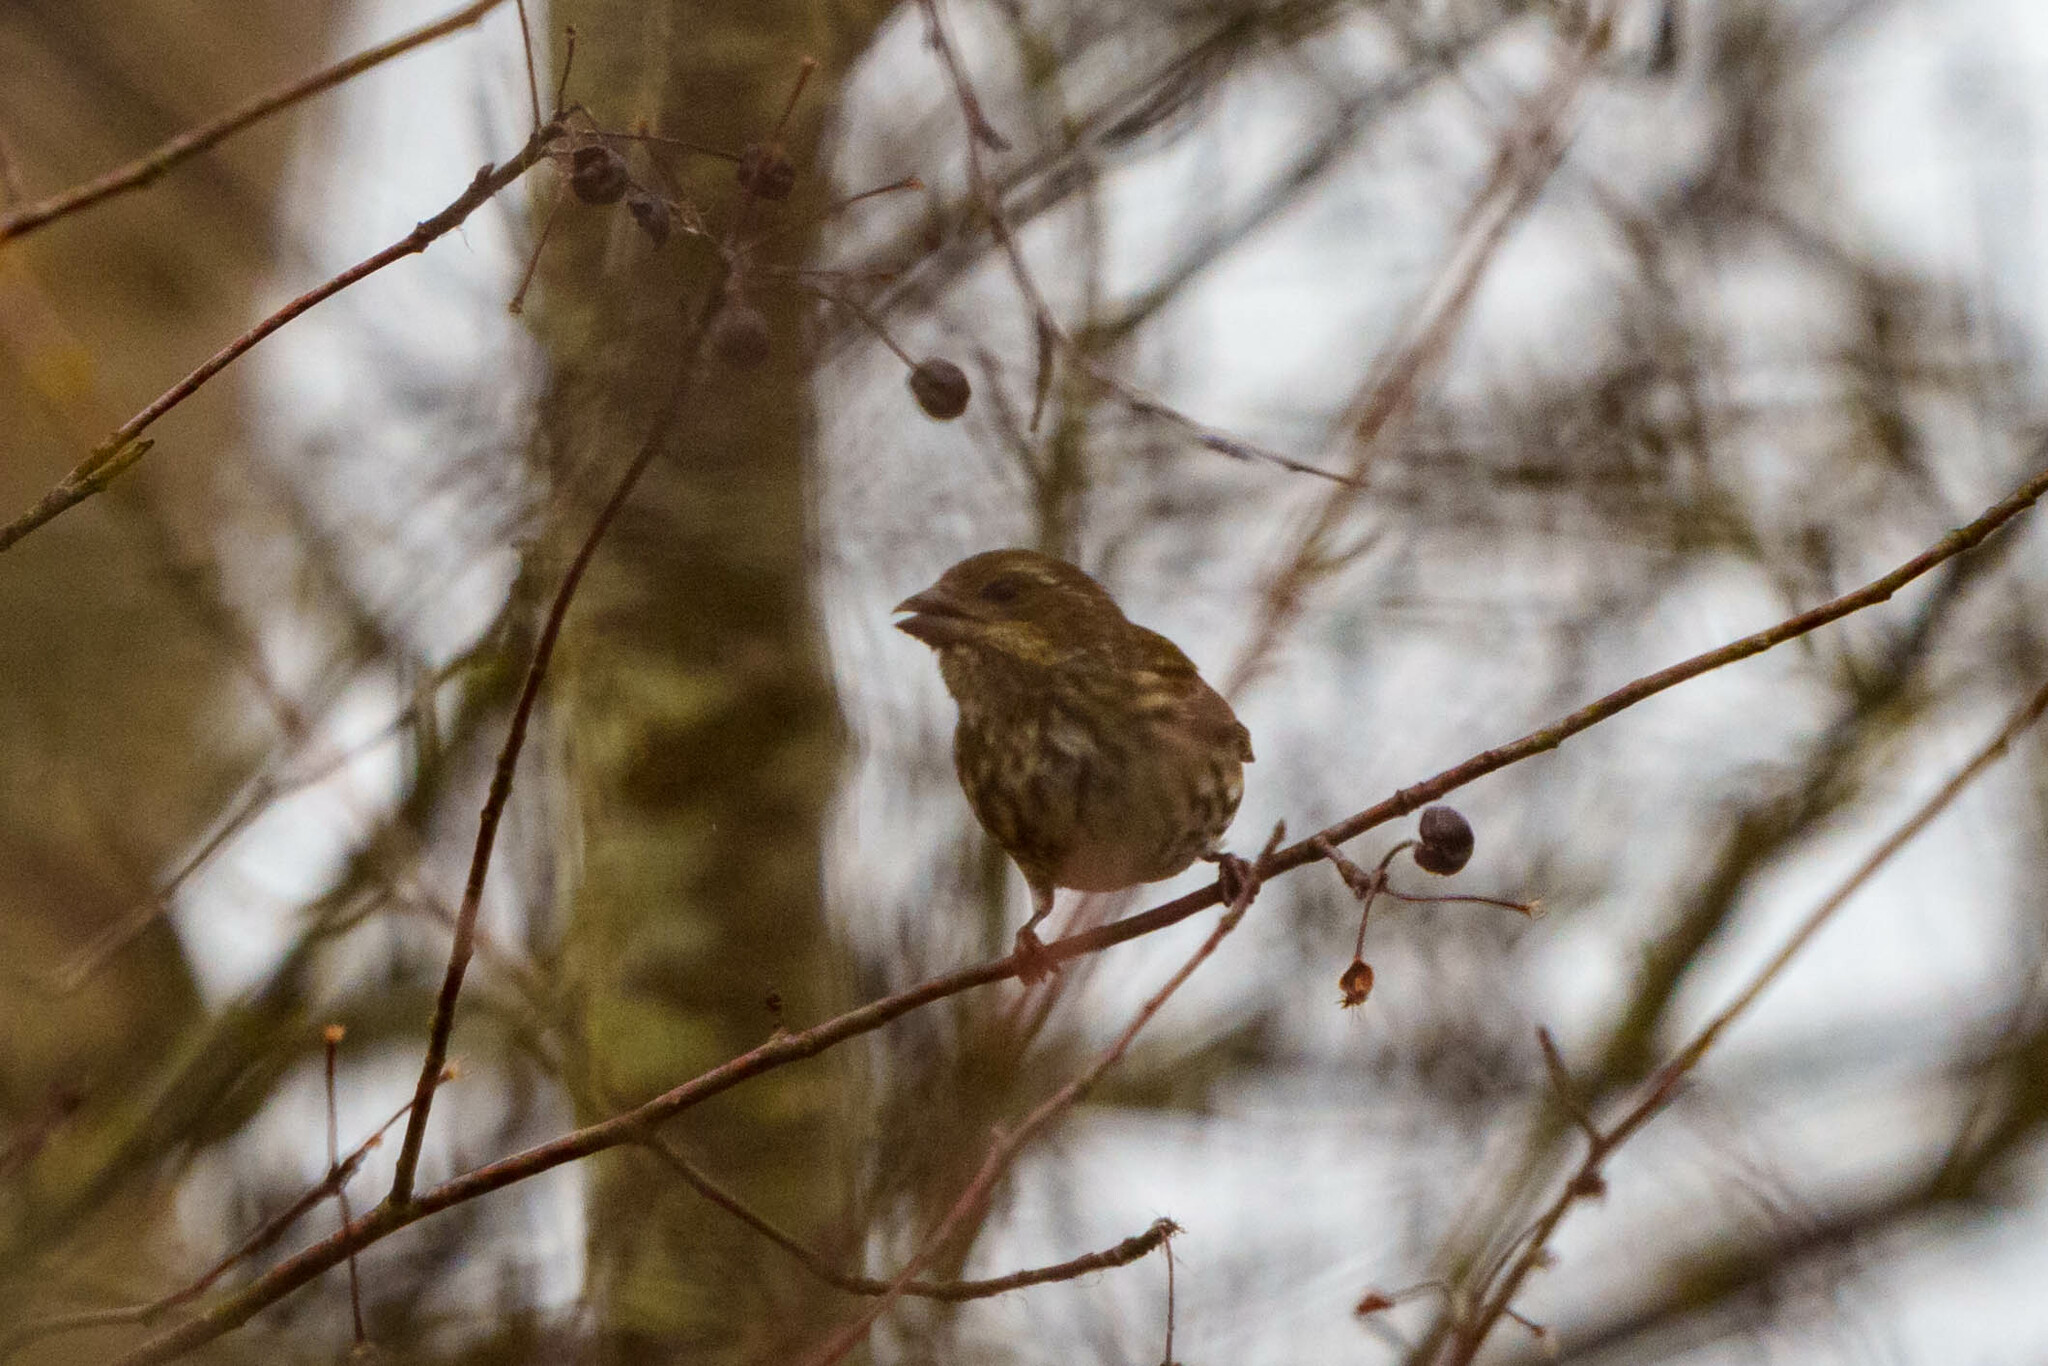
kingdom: Animalia
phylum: Chordata
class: Aves
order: Passeriformes
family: Fringillidae
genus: Haemorhous
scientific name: Haemorhous purpureus
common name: Purple finch
